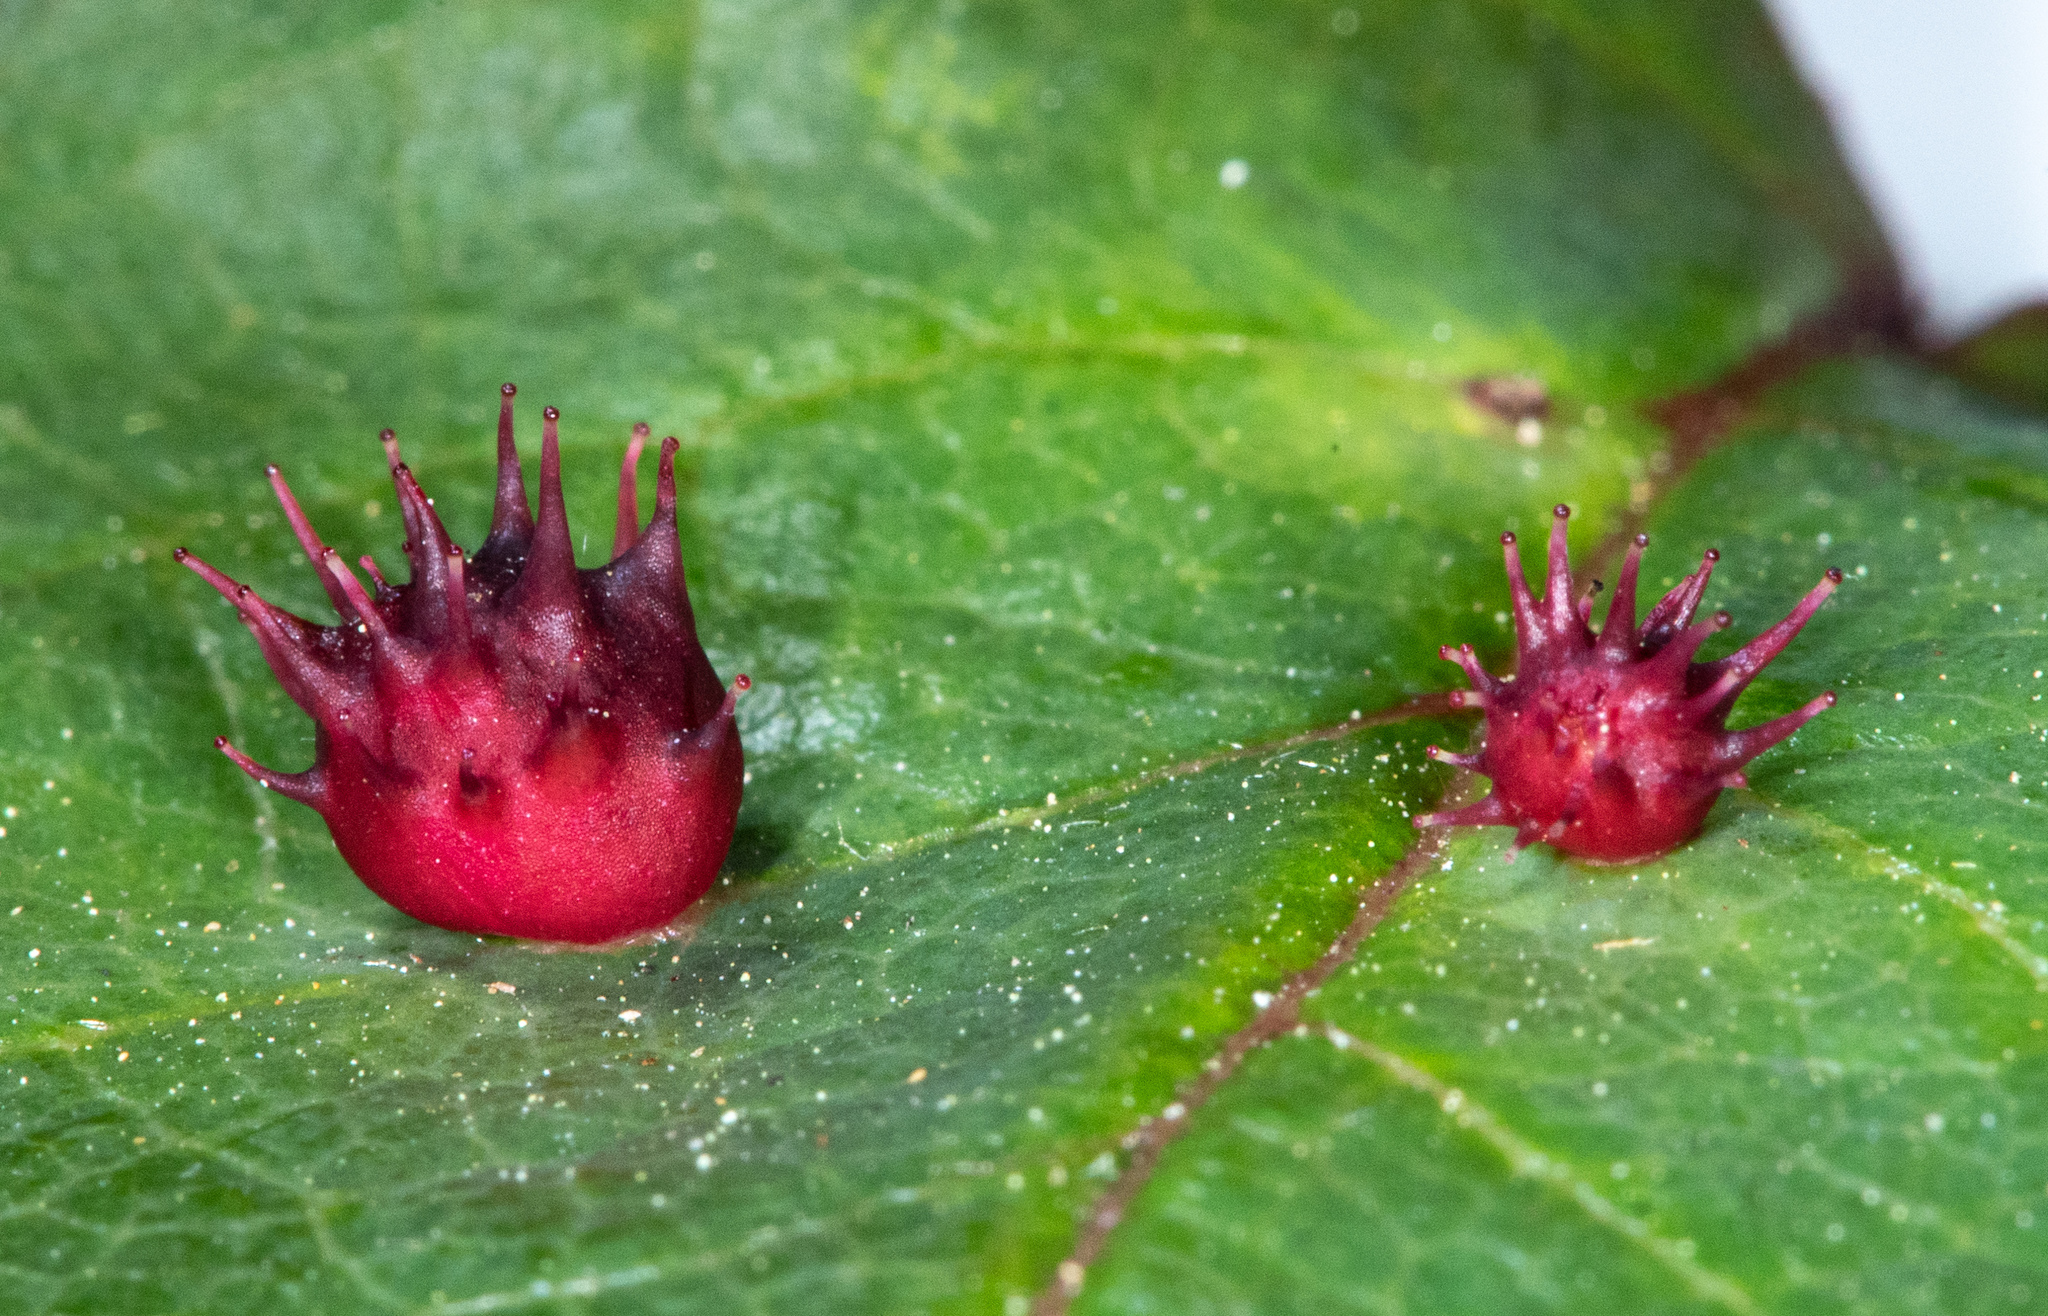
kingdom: Animalia
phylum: Arthropoda
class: Insecta
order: Hymenoptera
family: Cynipidae
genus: Diplolepis
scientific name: Diplolepis polita
